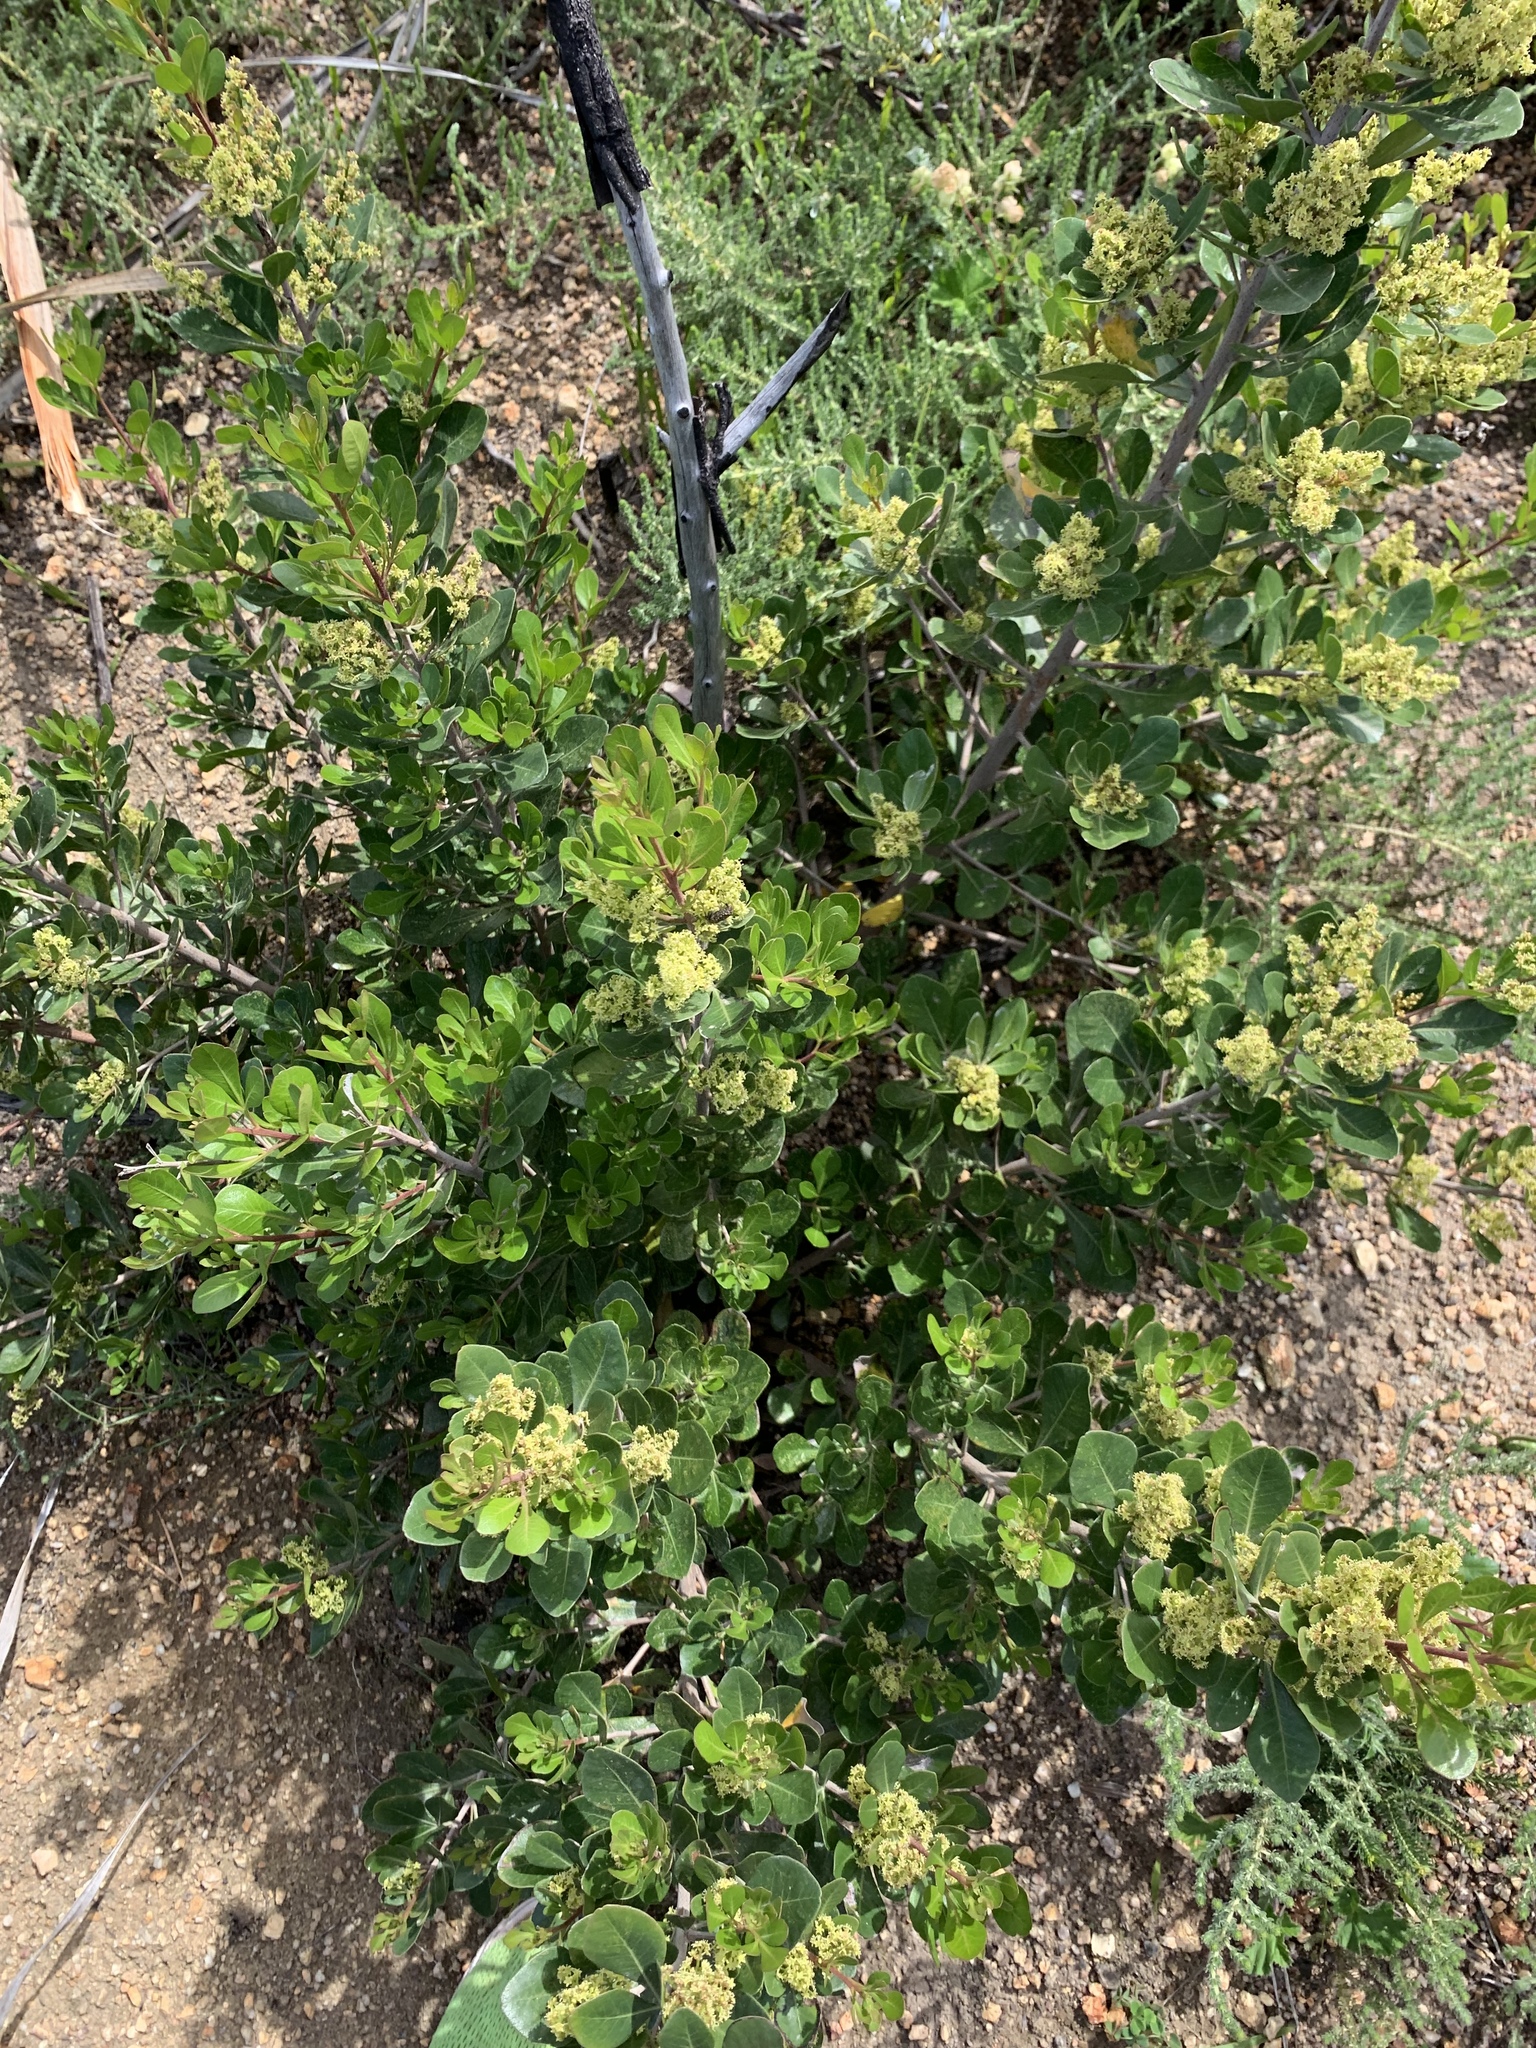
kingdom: Plantae
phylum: Tracheophyta
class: Magnoliopsida
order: Sapindales
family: Anacardiaceae
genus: Searsia
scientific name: Searsia lucida
